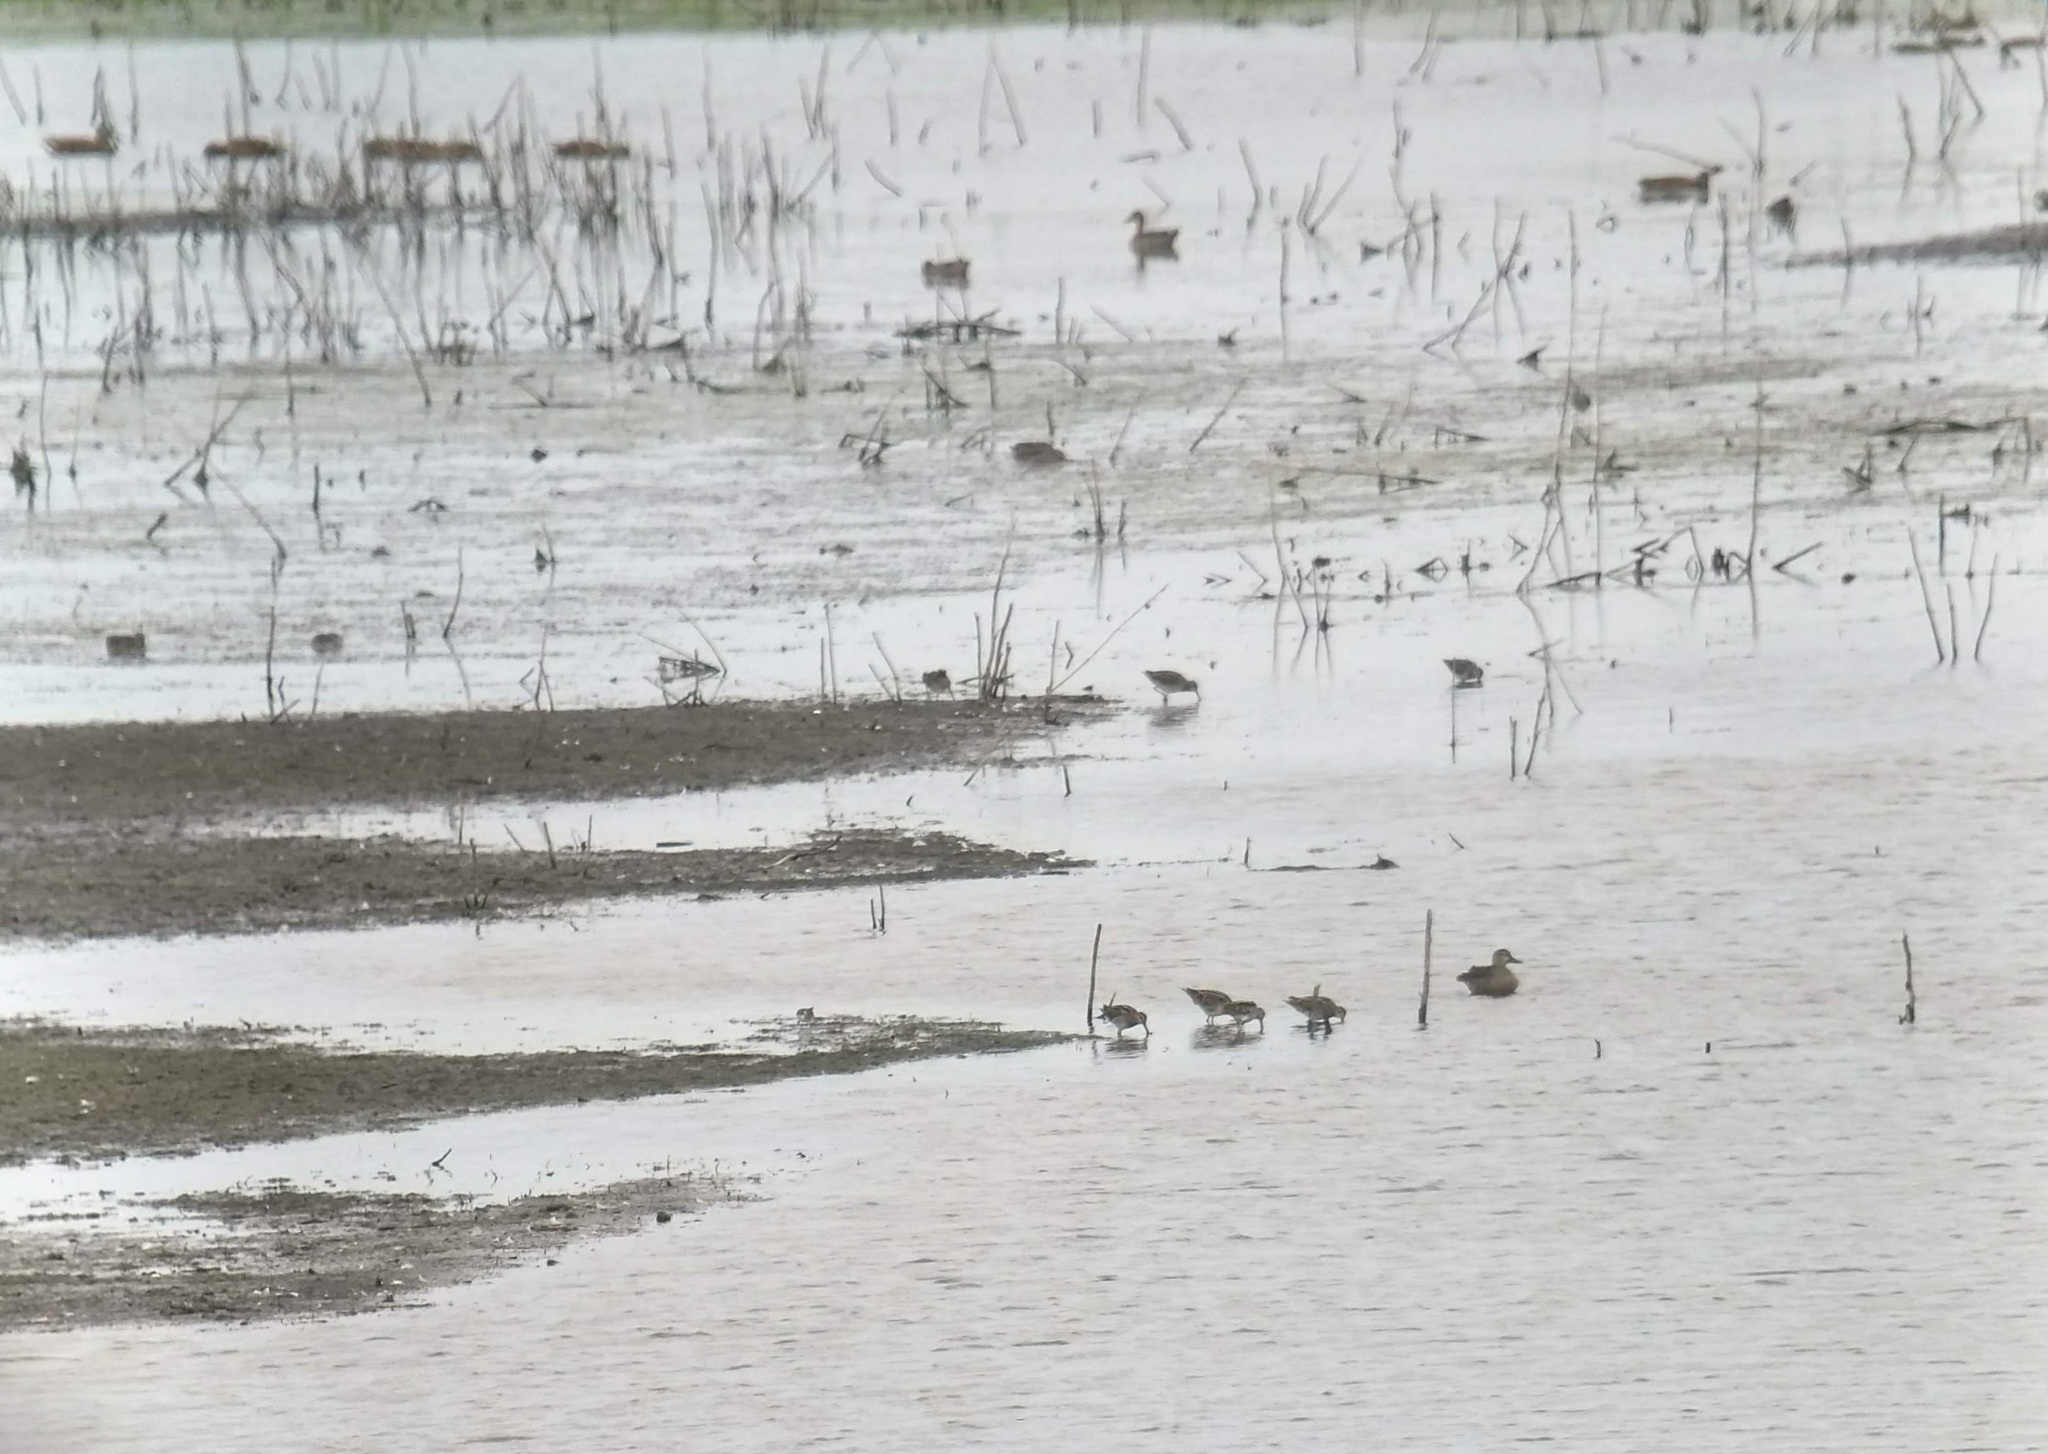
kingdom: Animalia
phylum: Chordata
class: Aves
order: Charadriiformes
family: Scolopacidae
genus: Gallinago
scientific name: Gallinago delicata
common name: Wilson's snipe
